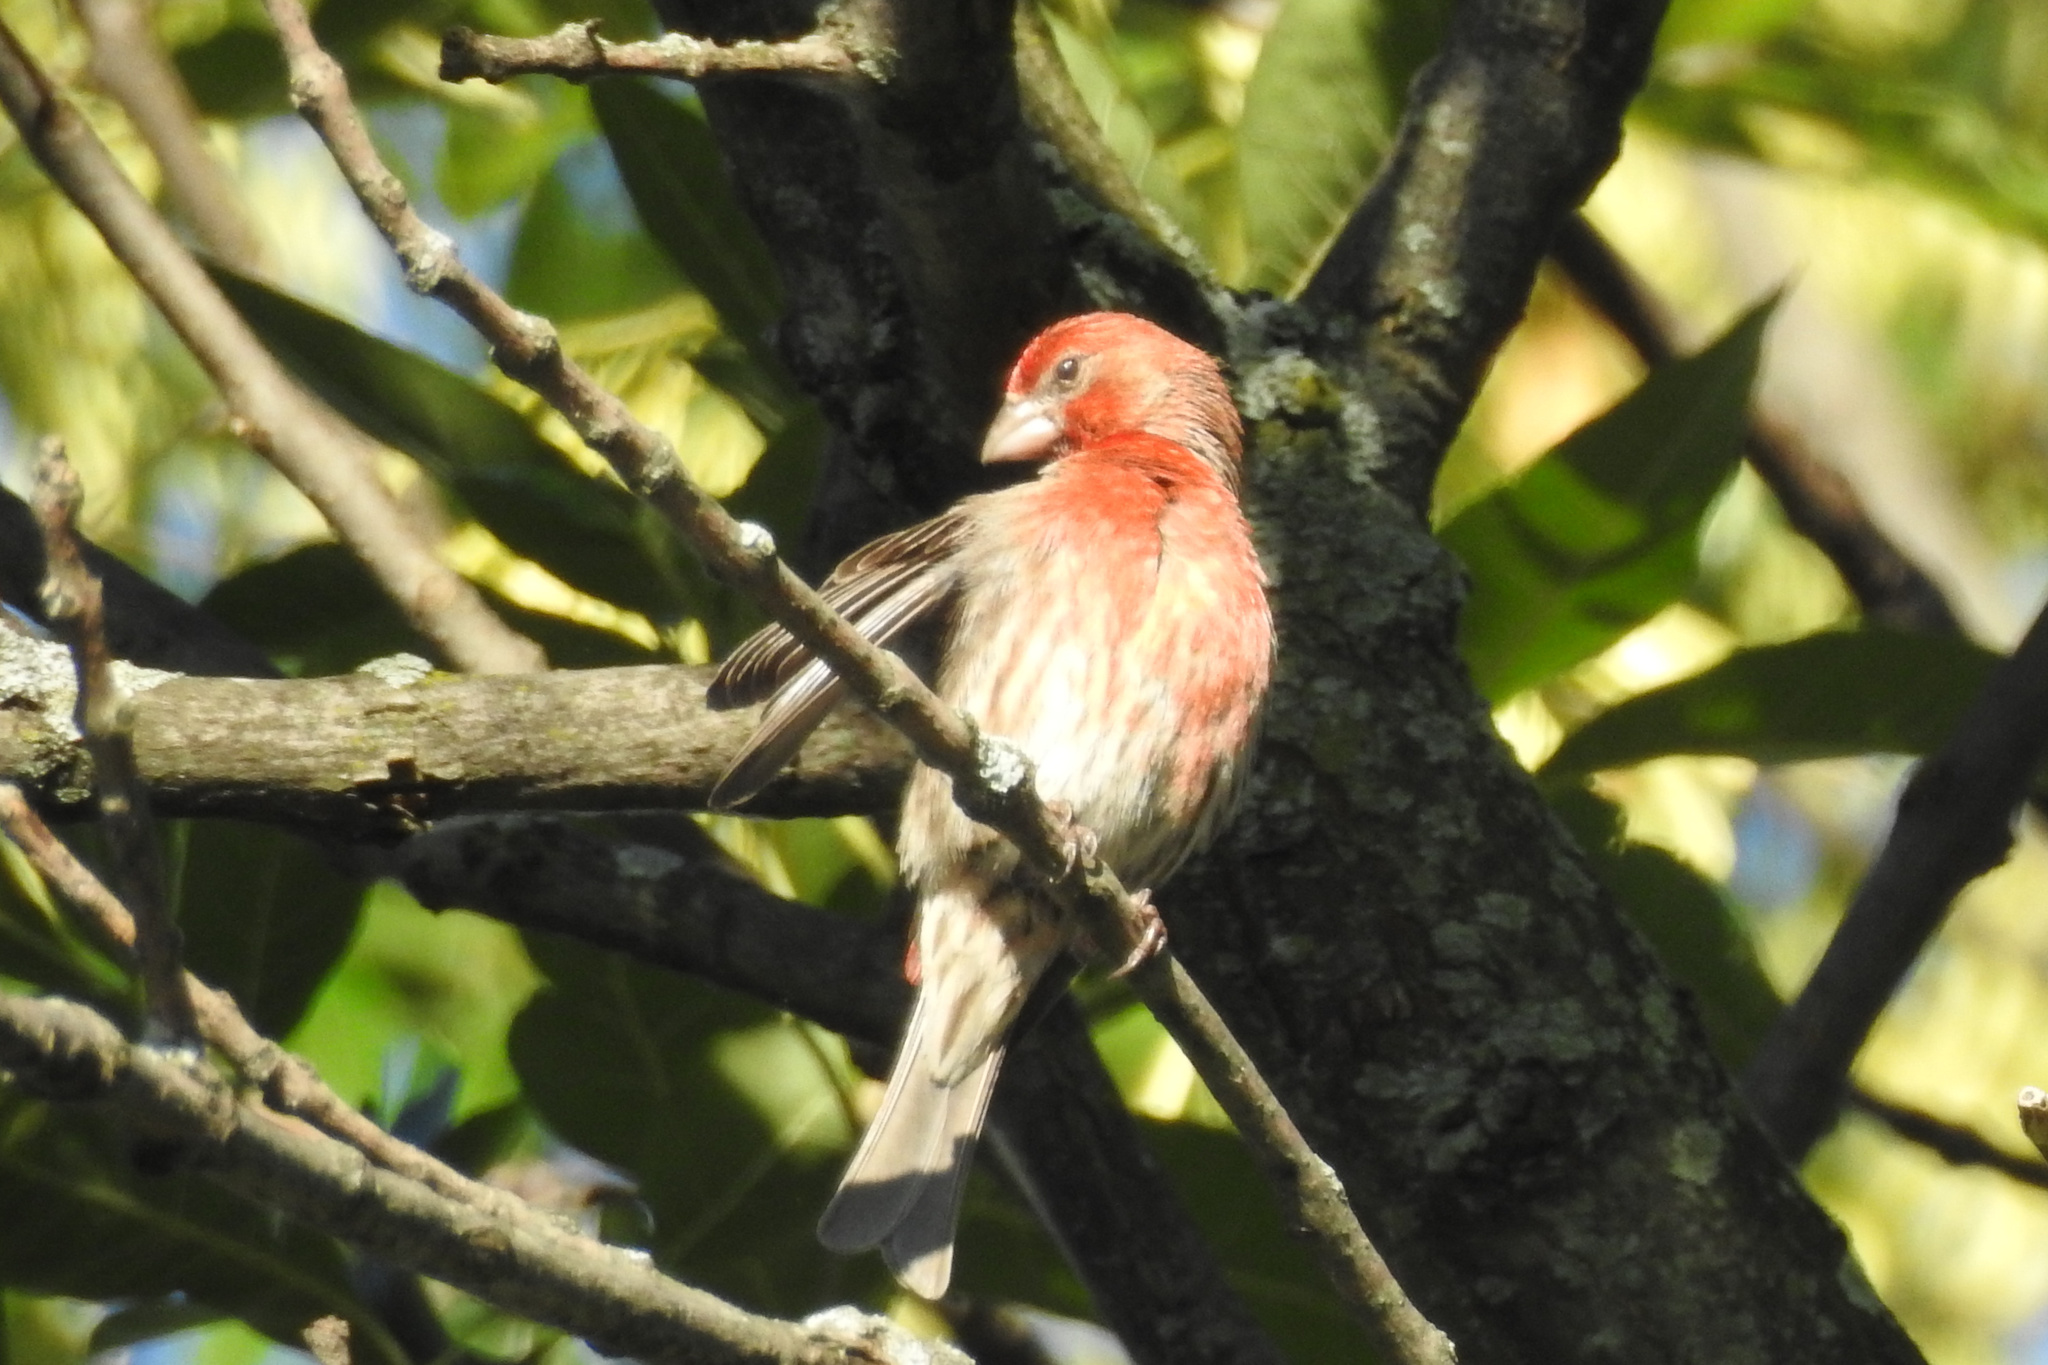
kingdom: Animalia
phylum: Chordata
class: Aves
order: Passeriformes
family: Fringillidae
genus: Haemorhous
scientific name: Haemorhous mexicanus
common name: House finch
